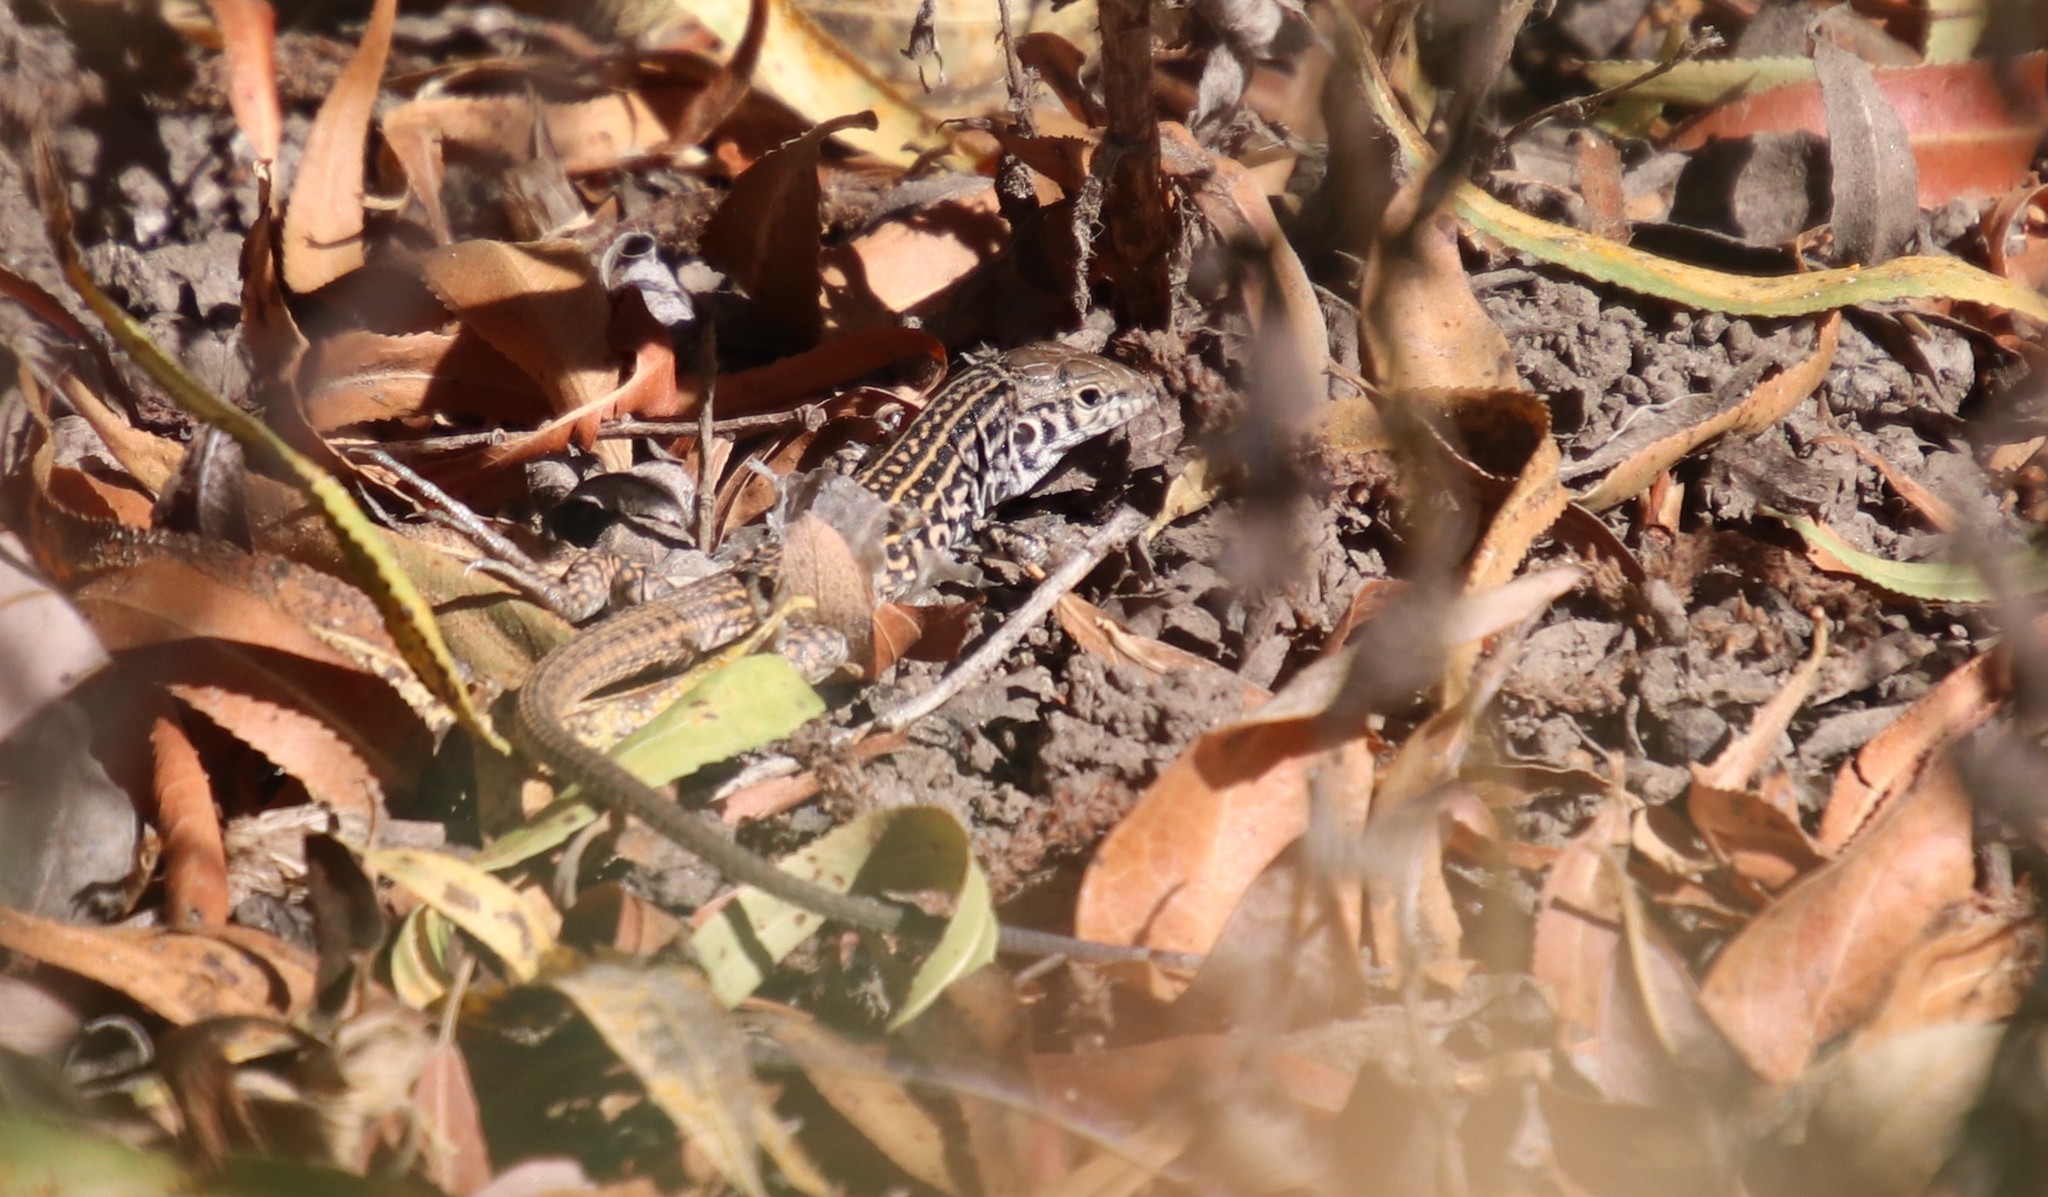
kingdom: Animalia
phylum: Chordata
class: Squamata
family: Teiidae
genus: Aspidoscelis
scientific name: Aspidoscelis tigris
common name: Tiger whiptail
